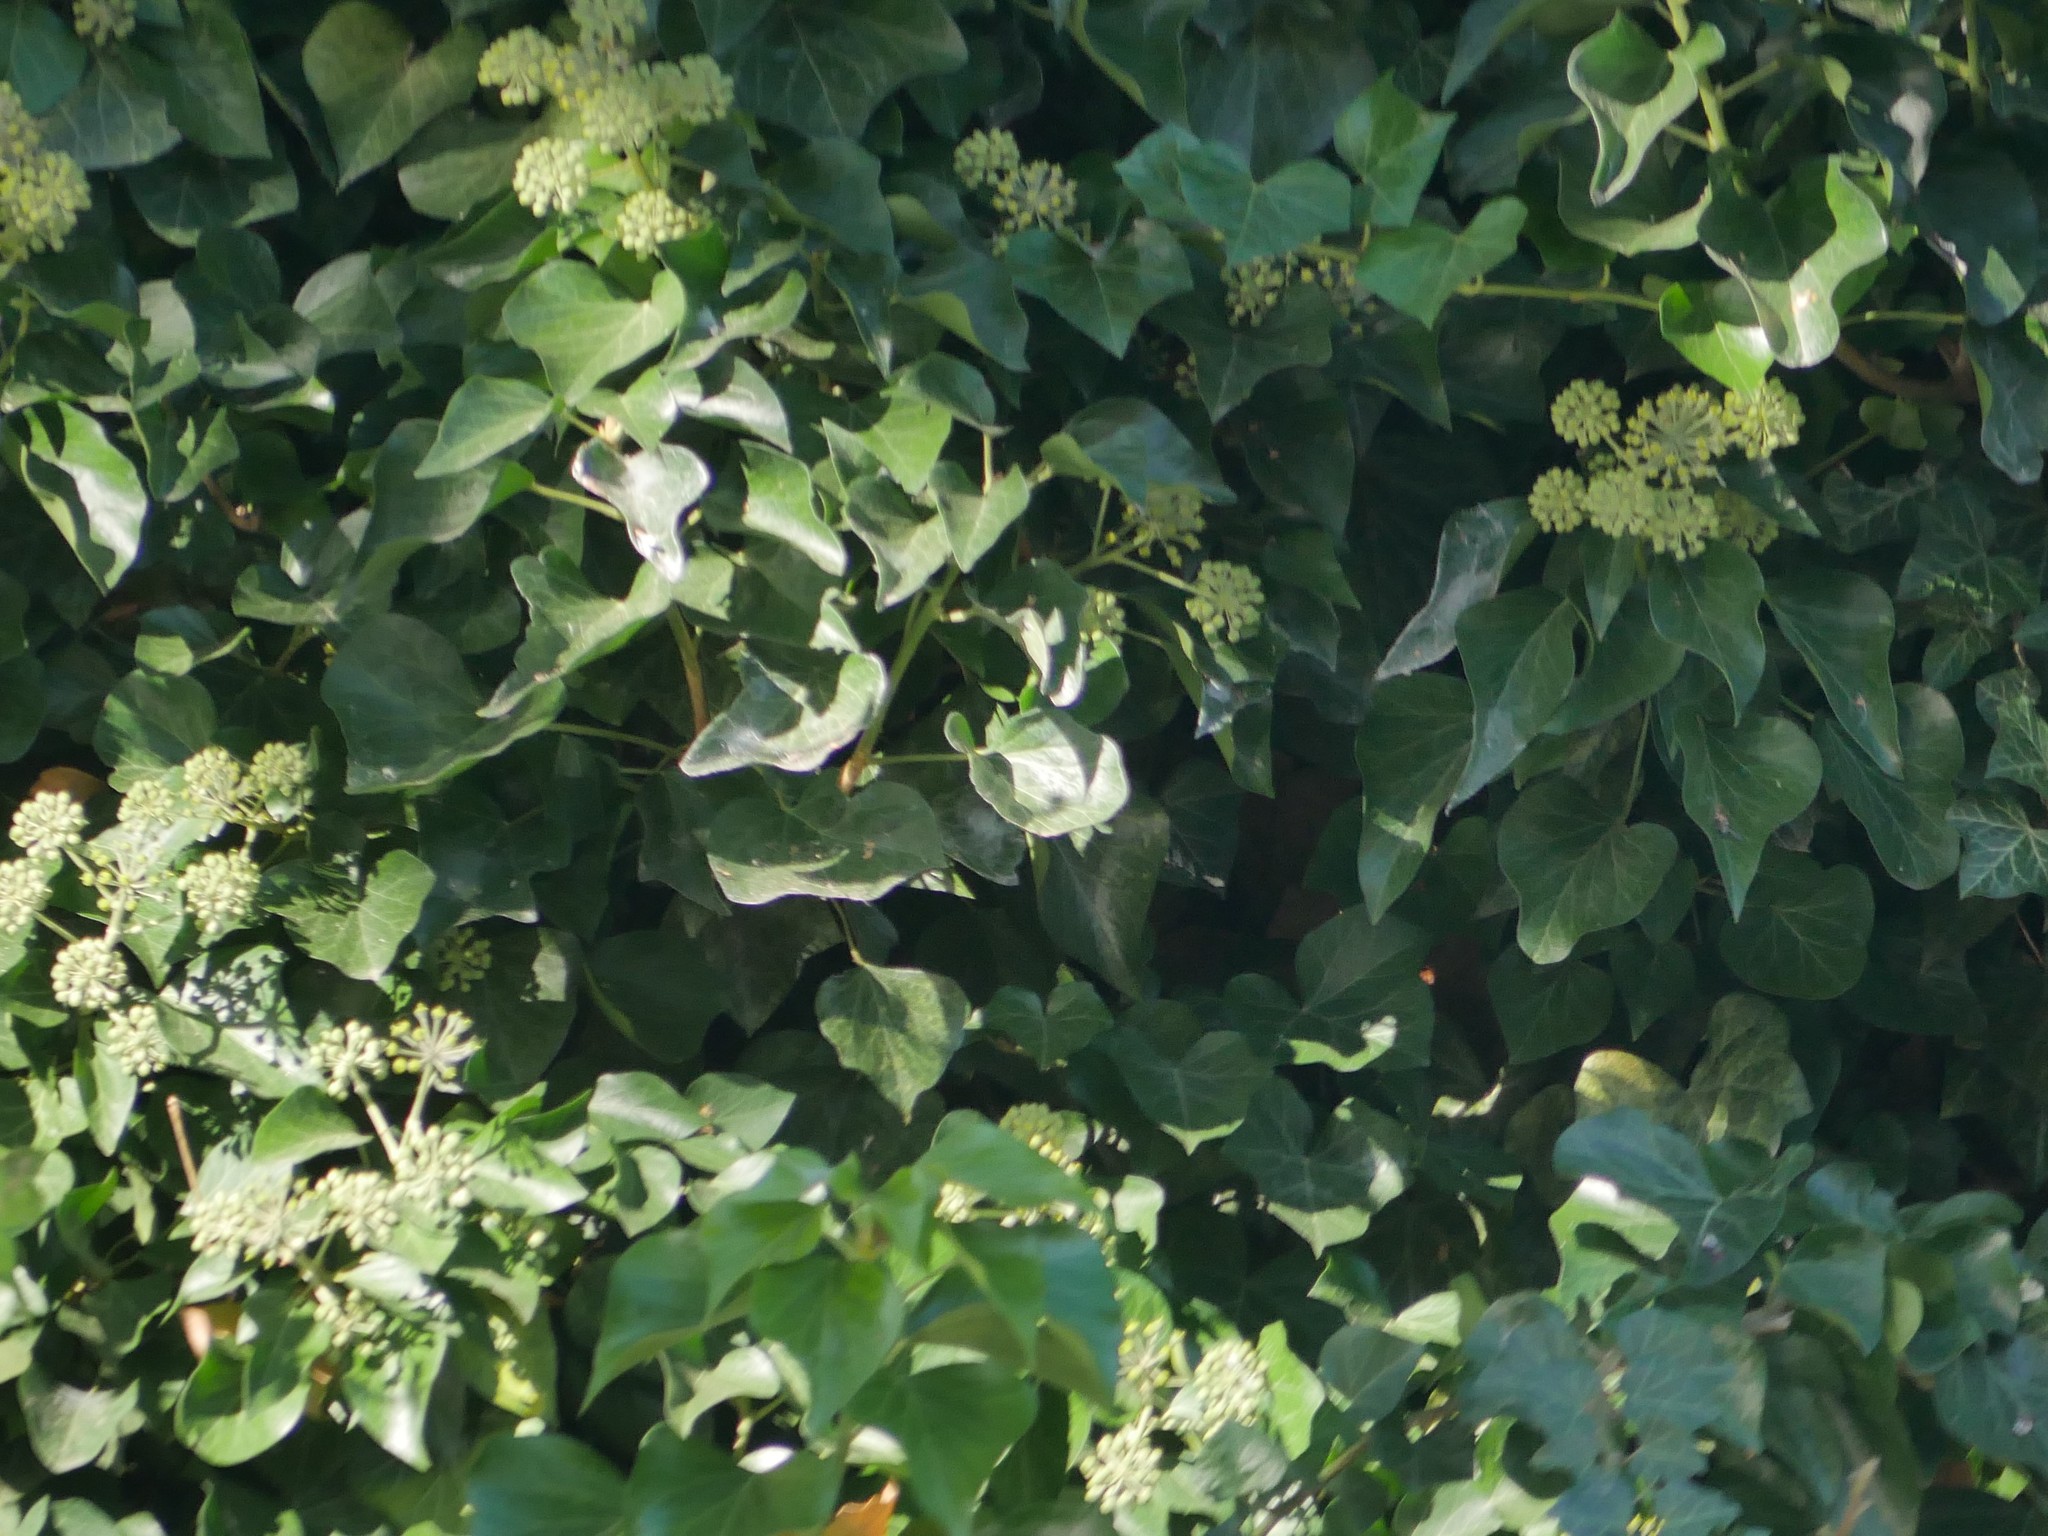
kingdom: Plantae
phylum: Tracheophyta
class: Magnoliopsida
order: Apiales
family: Araliaceae
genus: Hedera
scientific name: Hedera helix
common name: Ivy
